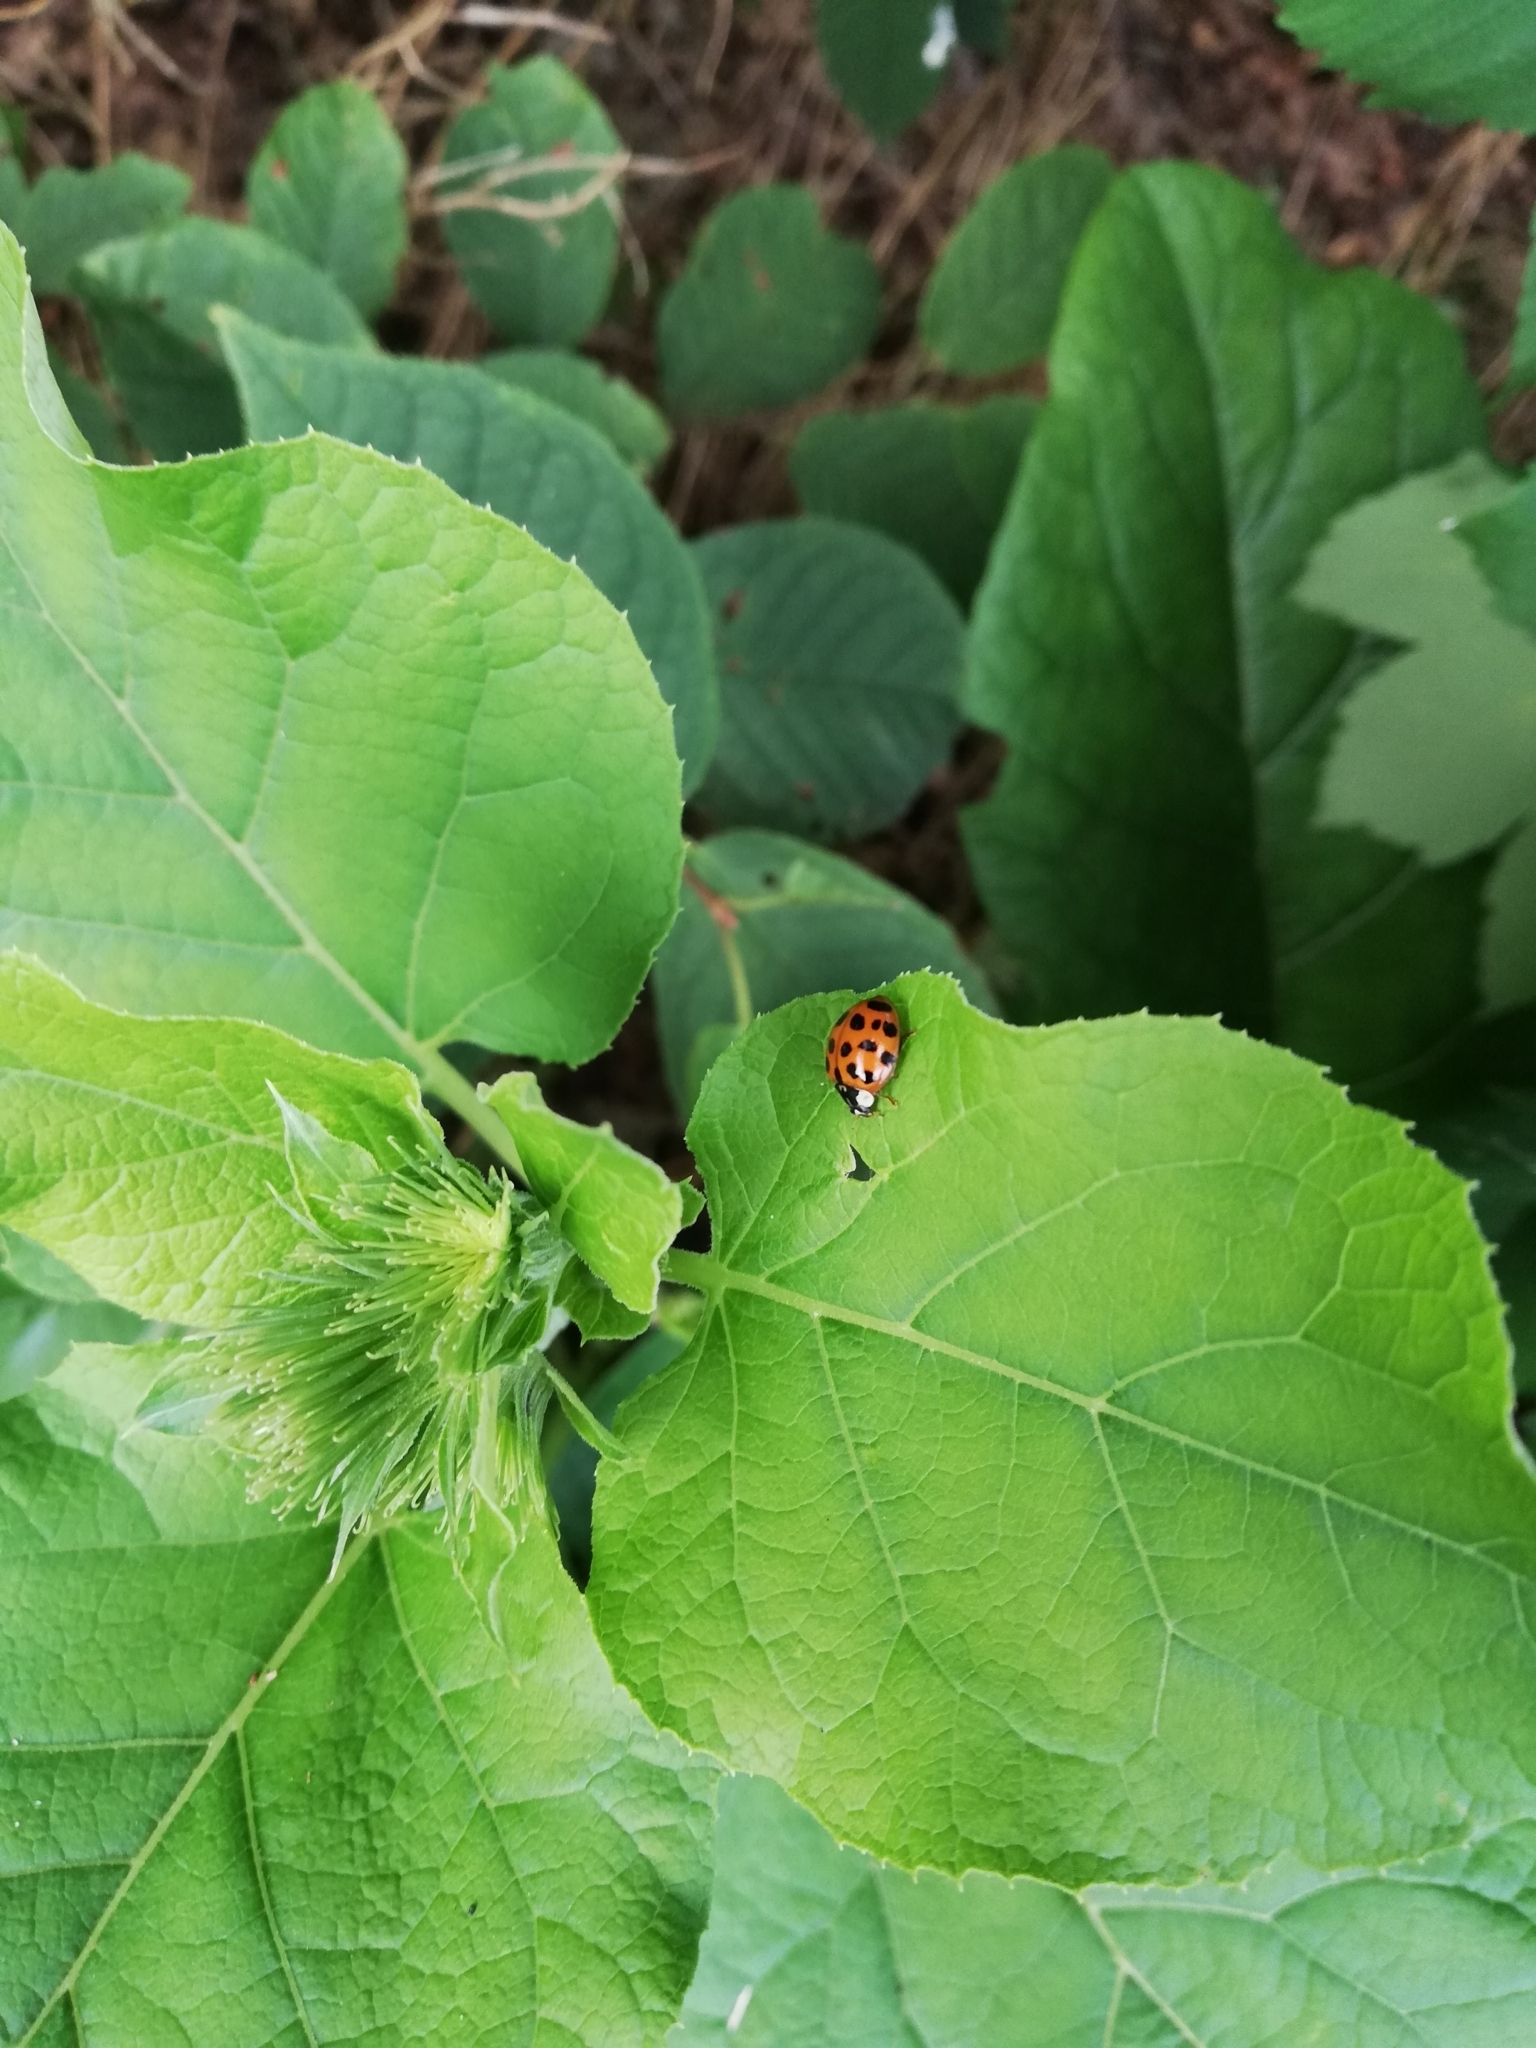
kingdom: Animalia
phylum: Arthropoda
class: Insecta
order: Coleoptera
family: Coccinellidae
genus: Harmonia
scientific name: Harmonia axyridis
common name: Harlequin ladybird
